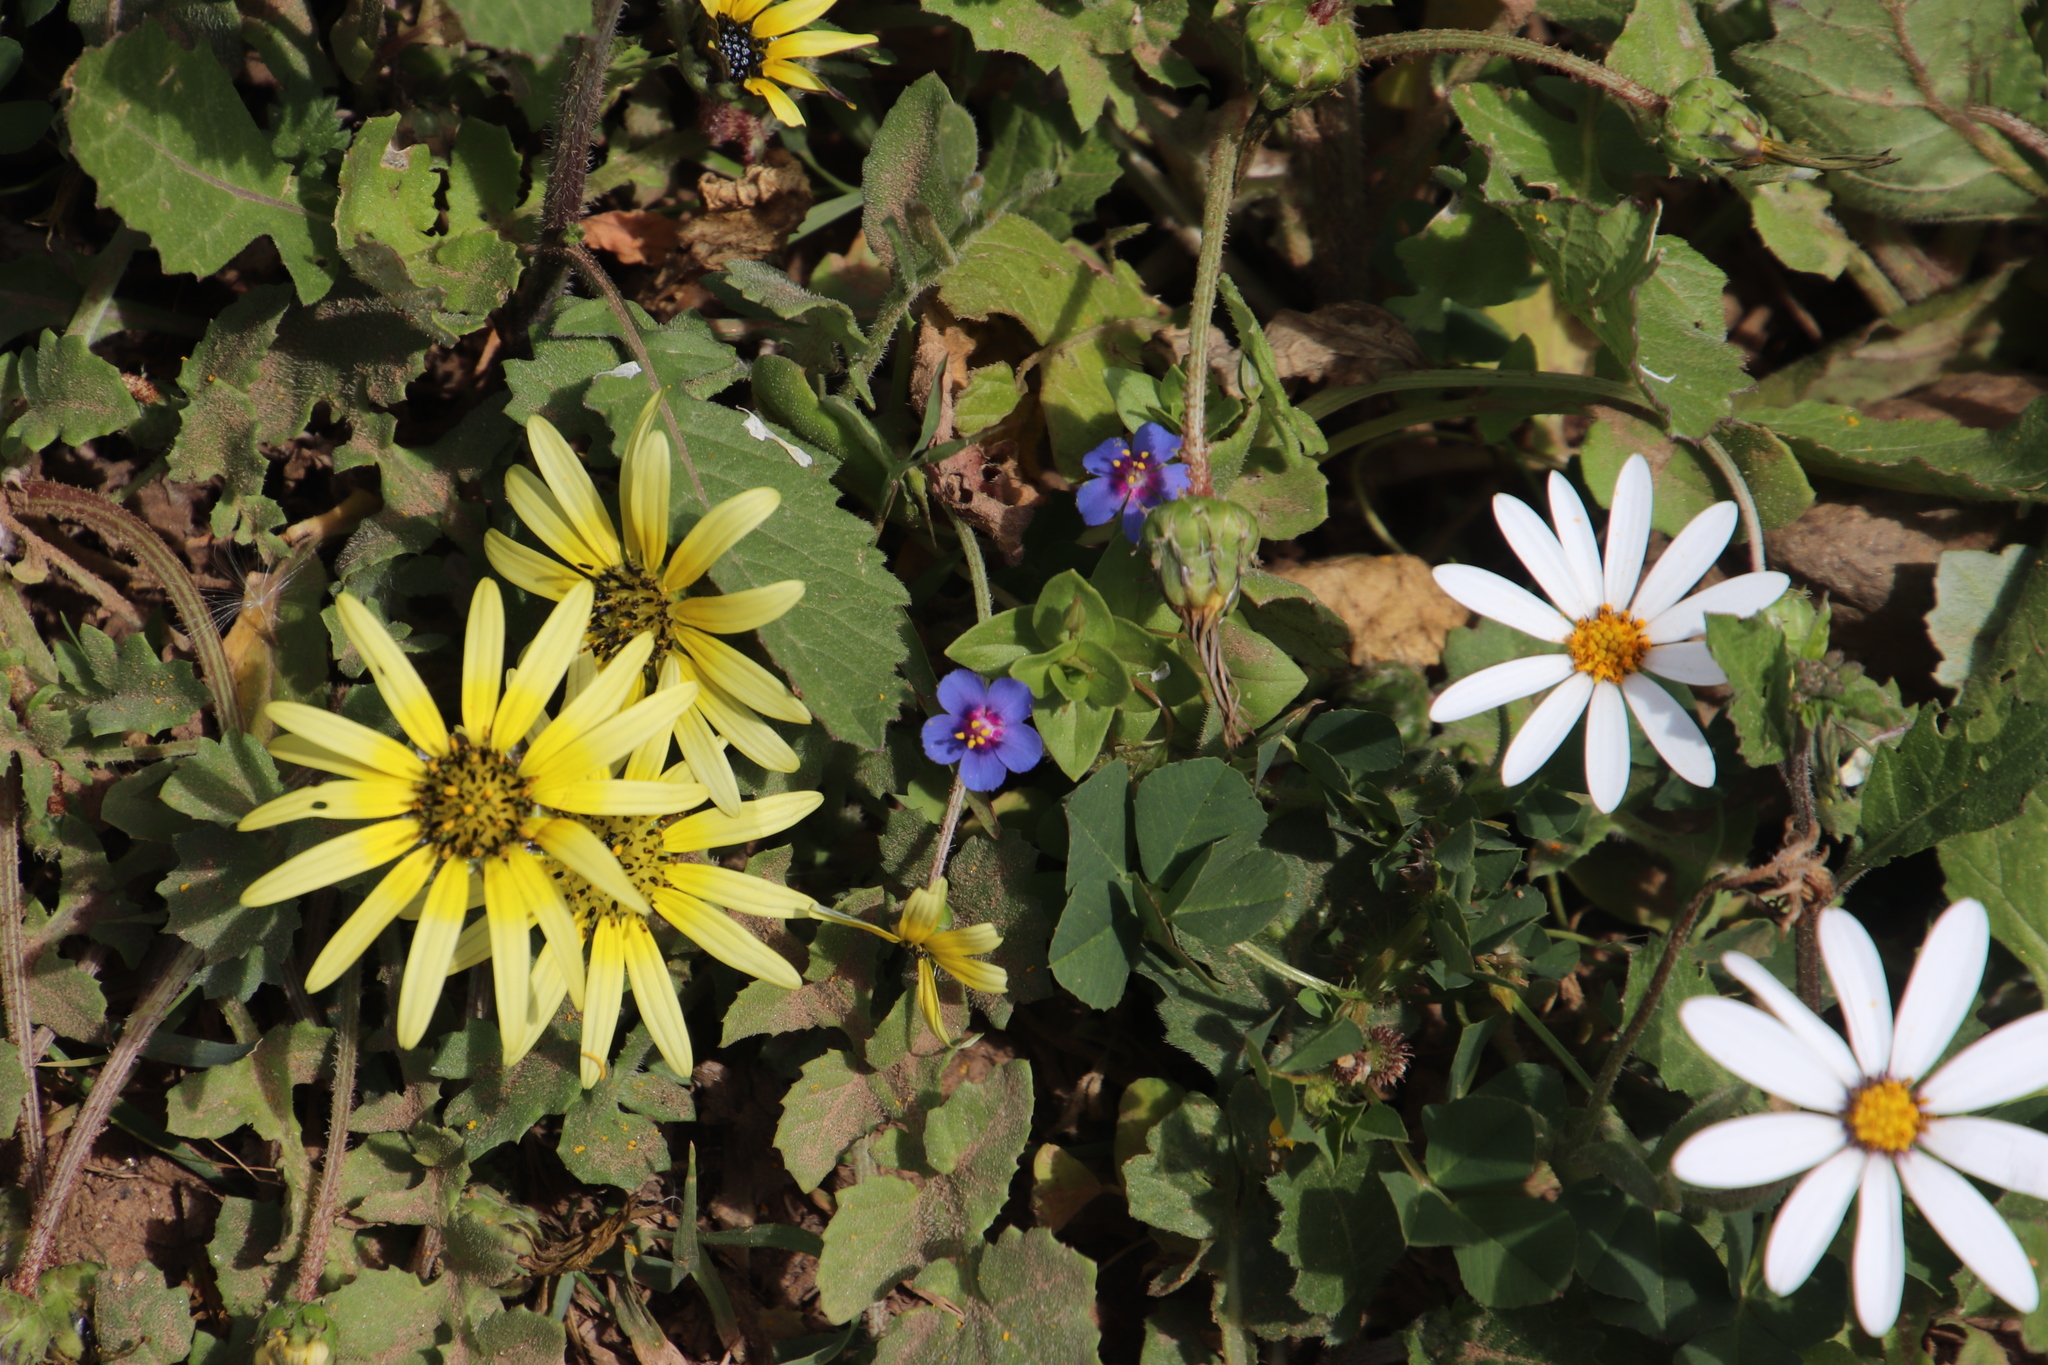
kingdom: Plantae
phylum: Tracheophyta
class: Magnoliopsida
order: Ericales
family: Primulaceae
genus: Lysimachia
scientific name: Lysimachia loeflingii
